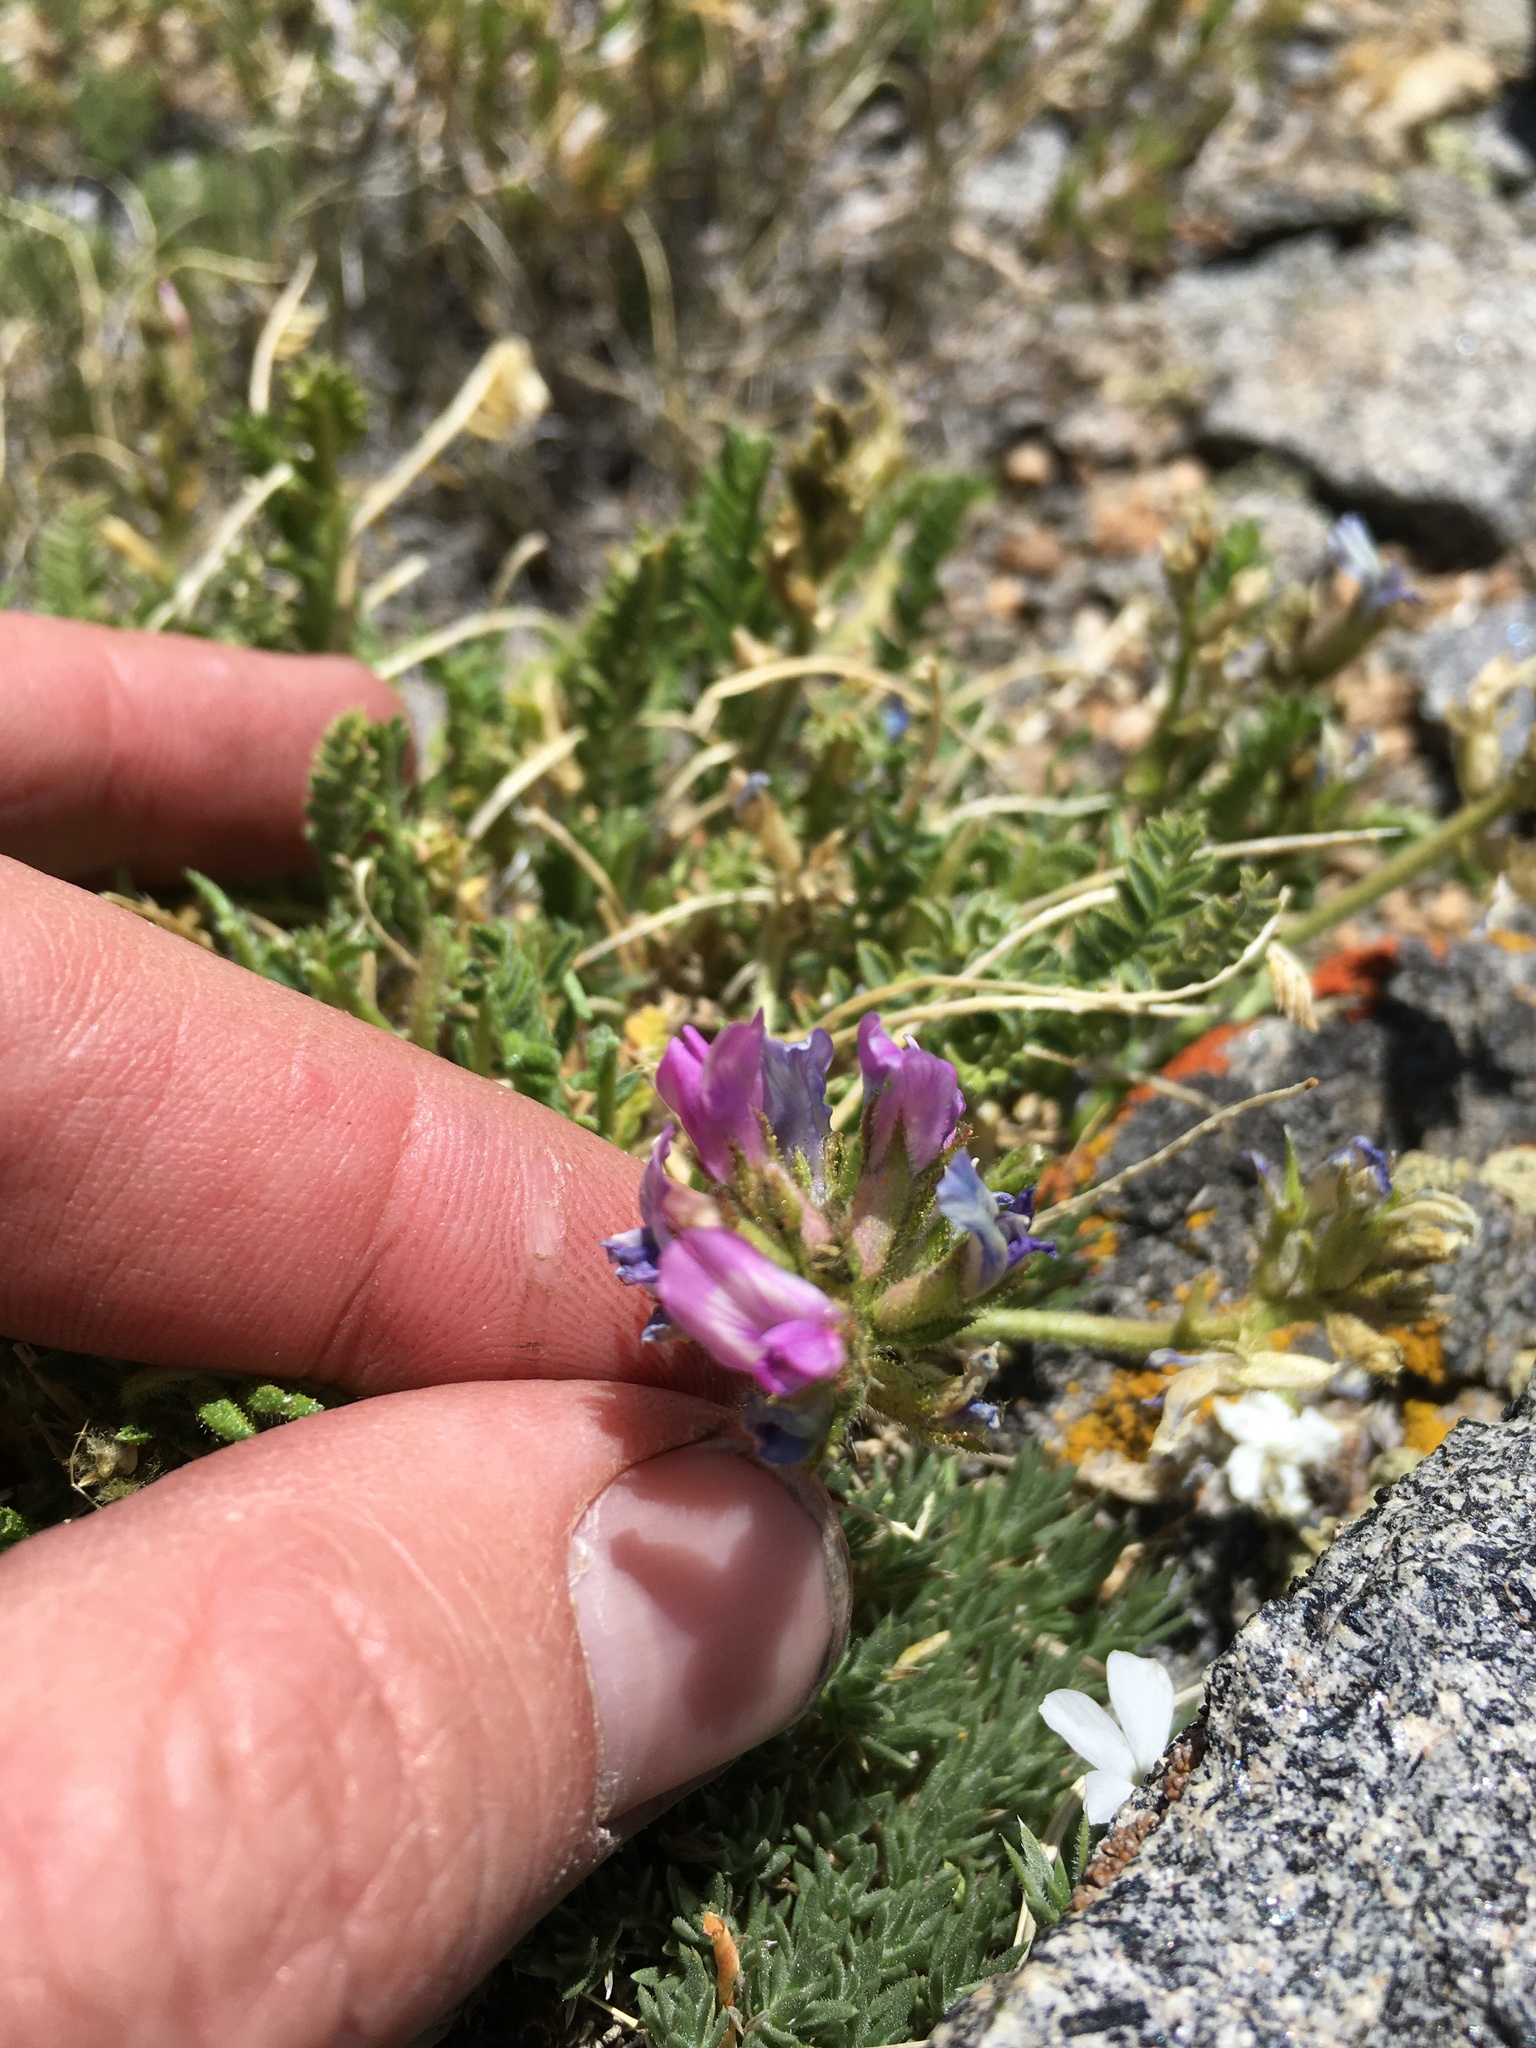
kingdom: Plantae
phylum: Tracheophyta
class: Magnoliopsida
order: Fabales
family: Fabaceae
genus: Oxytropis
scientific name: Oxytropis borealis
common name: Boreal locoweed
